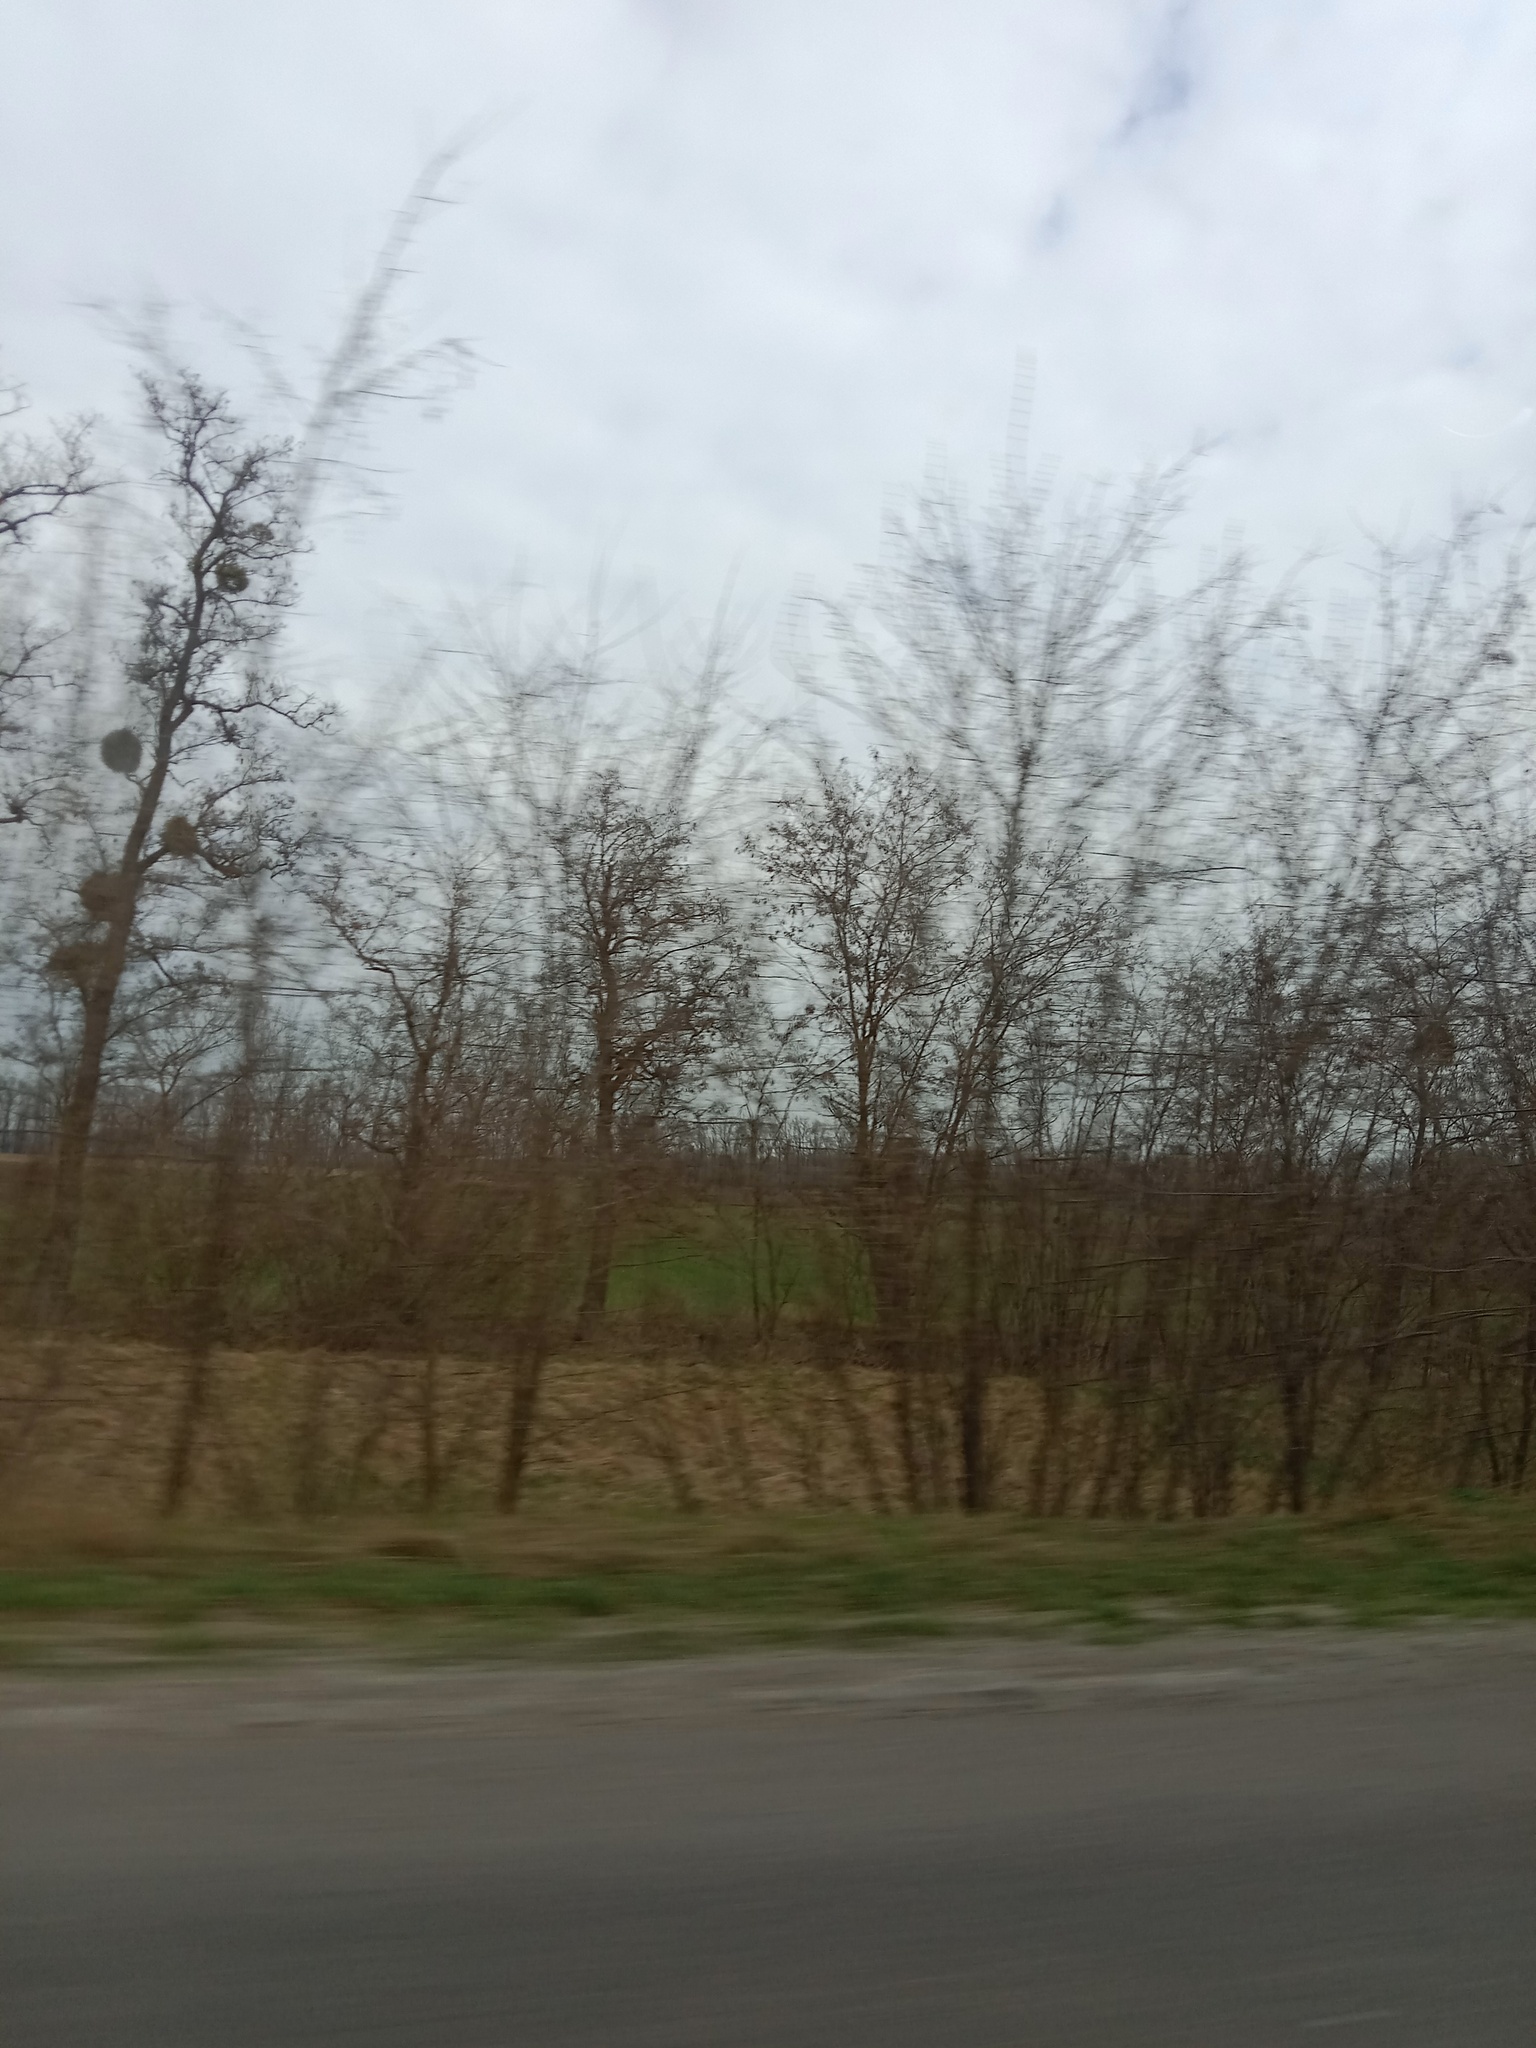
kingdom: Plantae
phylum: Tracheophyta
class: Magnoliopsida
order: Santalales
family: Viscaceae
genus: Viscum
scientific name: Viscum album
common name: Mistletoe
